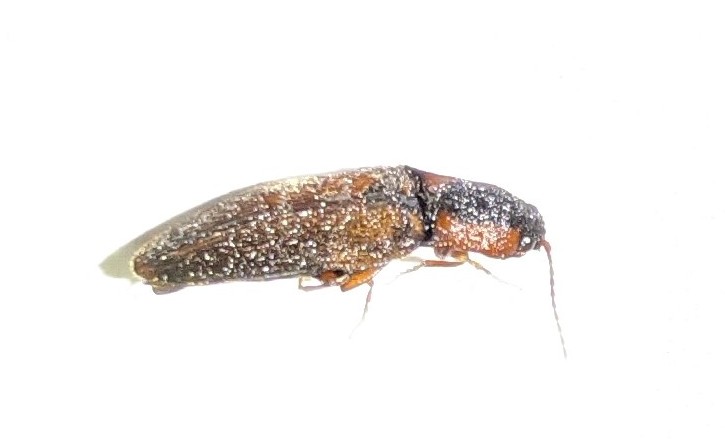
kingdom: Animalia
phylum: Arthropoda
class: Insecta
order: Coleoptera
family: Elateridae
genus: Agriotes
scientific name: Agriotes collaris
